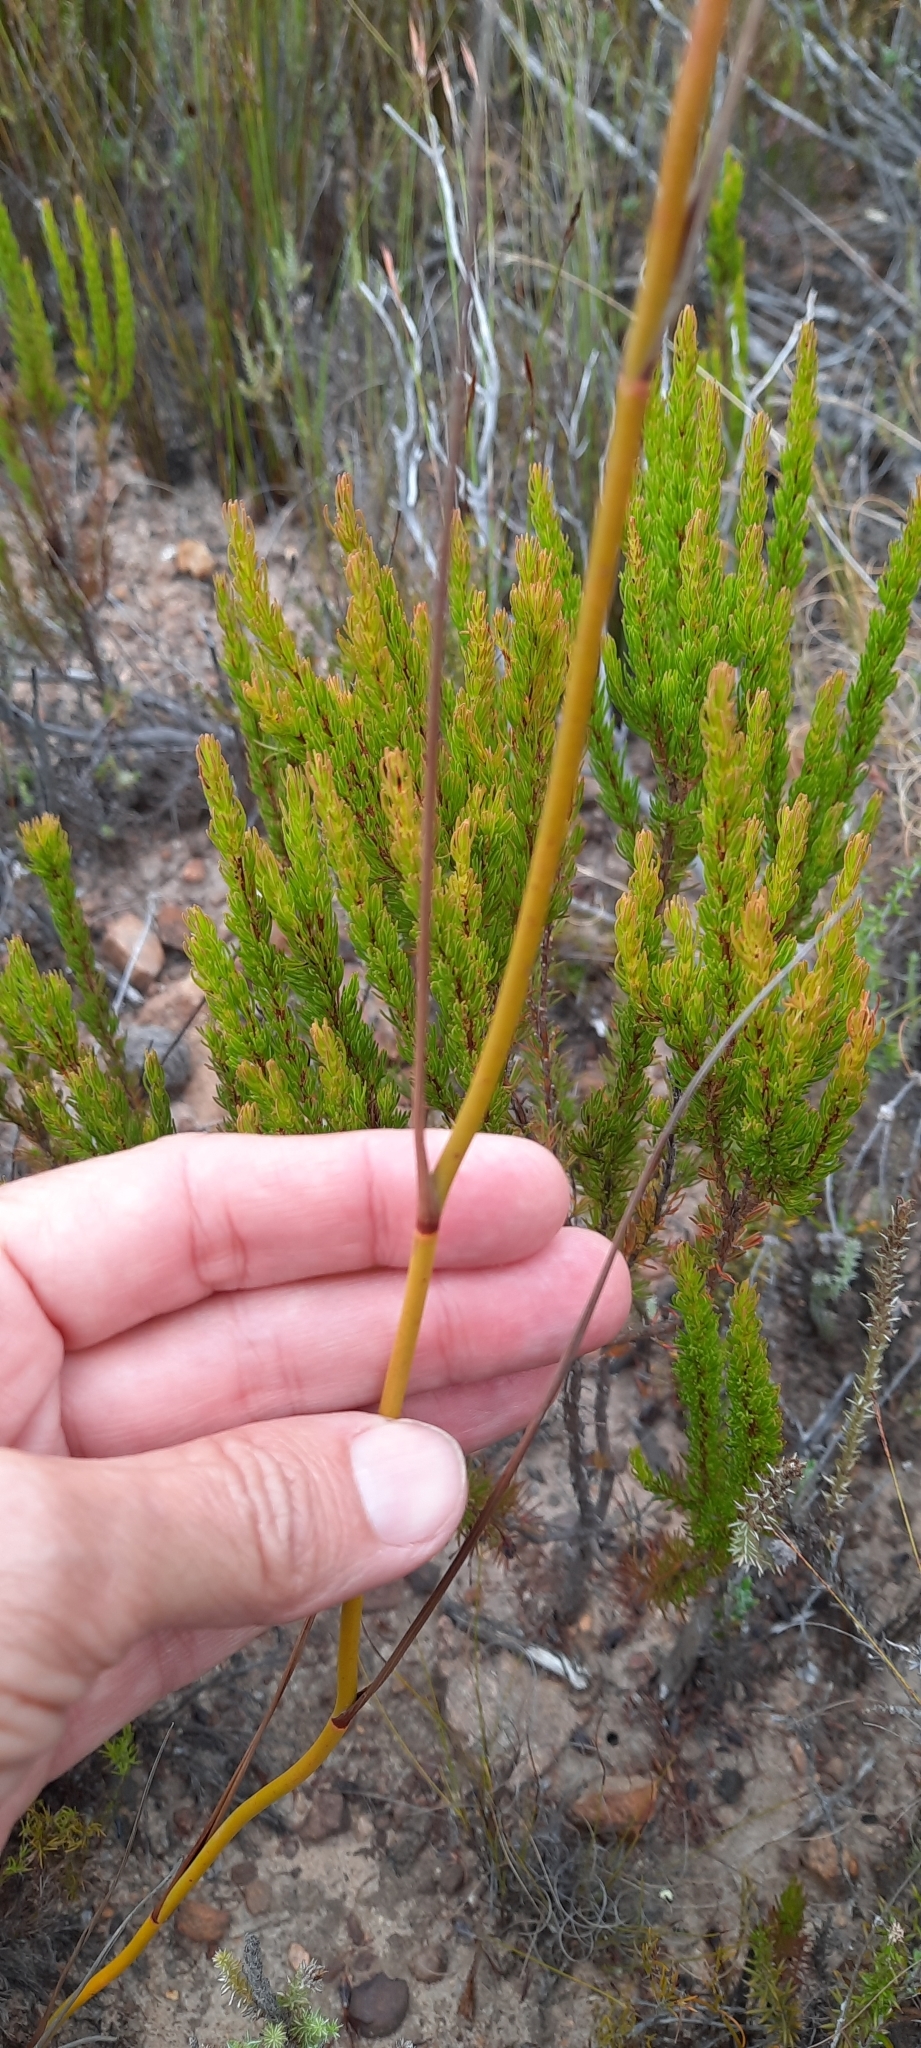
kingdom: Plantae
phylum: Tracheophyta
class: Liliopsida
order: Asparagales
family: Iridaceae
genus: Tritoniopsis
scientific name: Tritoniopsis triticea
